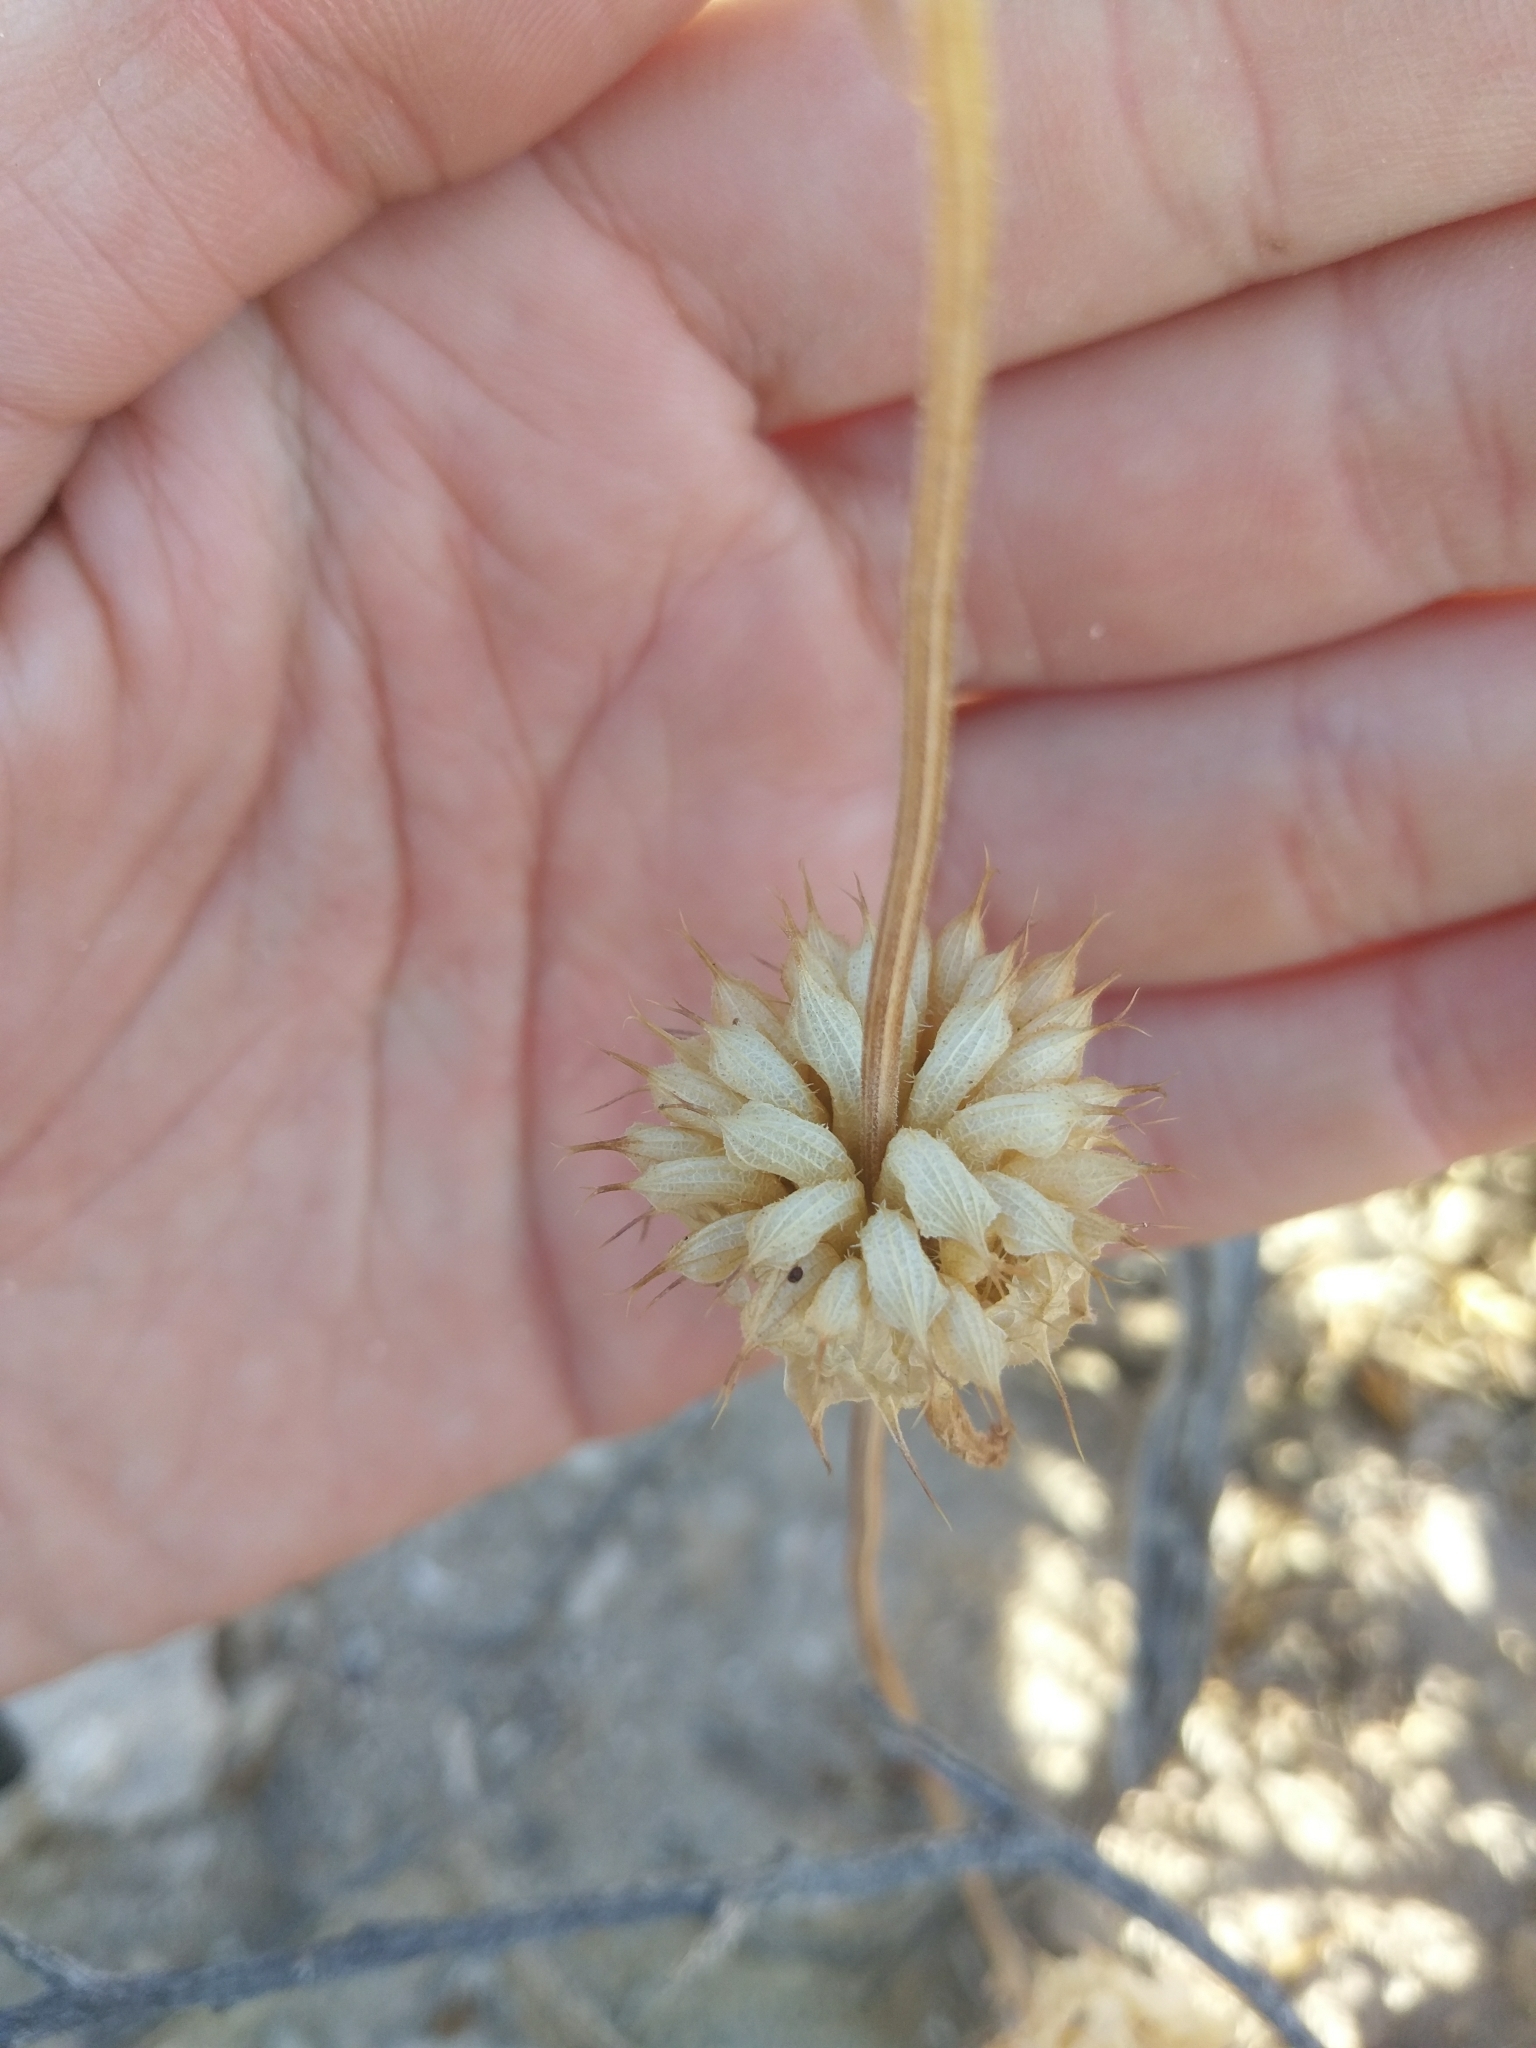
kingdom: Plantae
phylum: Tracheophyta
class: Magnoliopsida
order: Lamiales
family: Lamiaceae
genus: Salvia
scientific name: Salvia columbariae
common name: Chia
